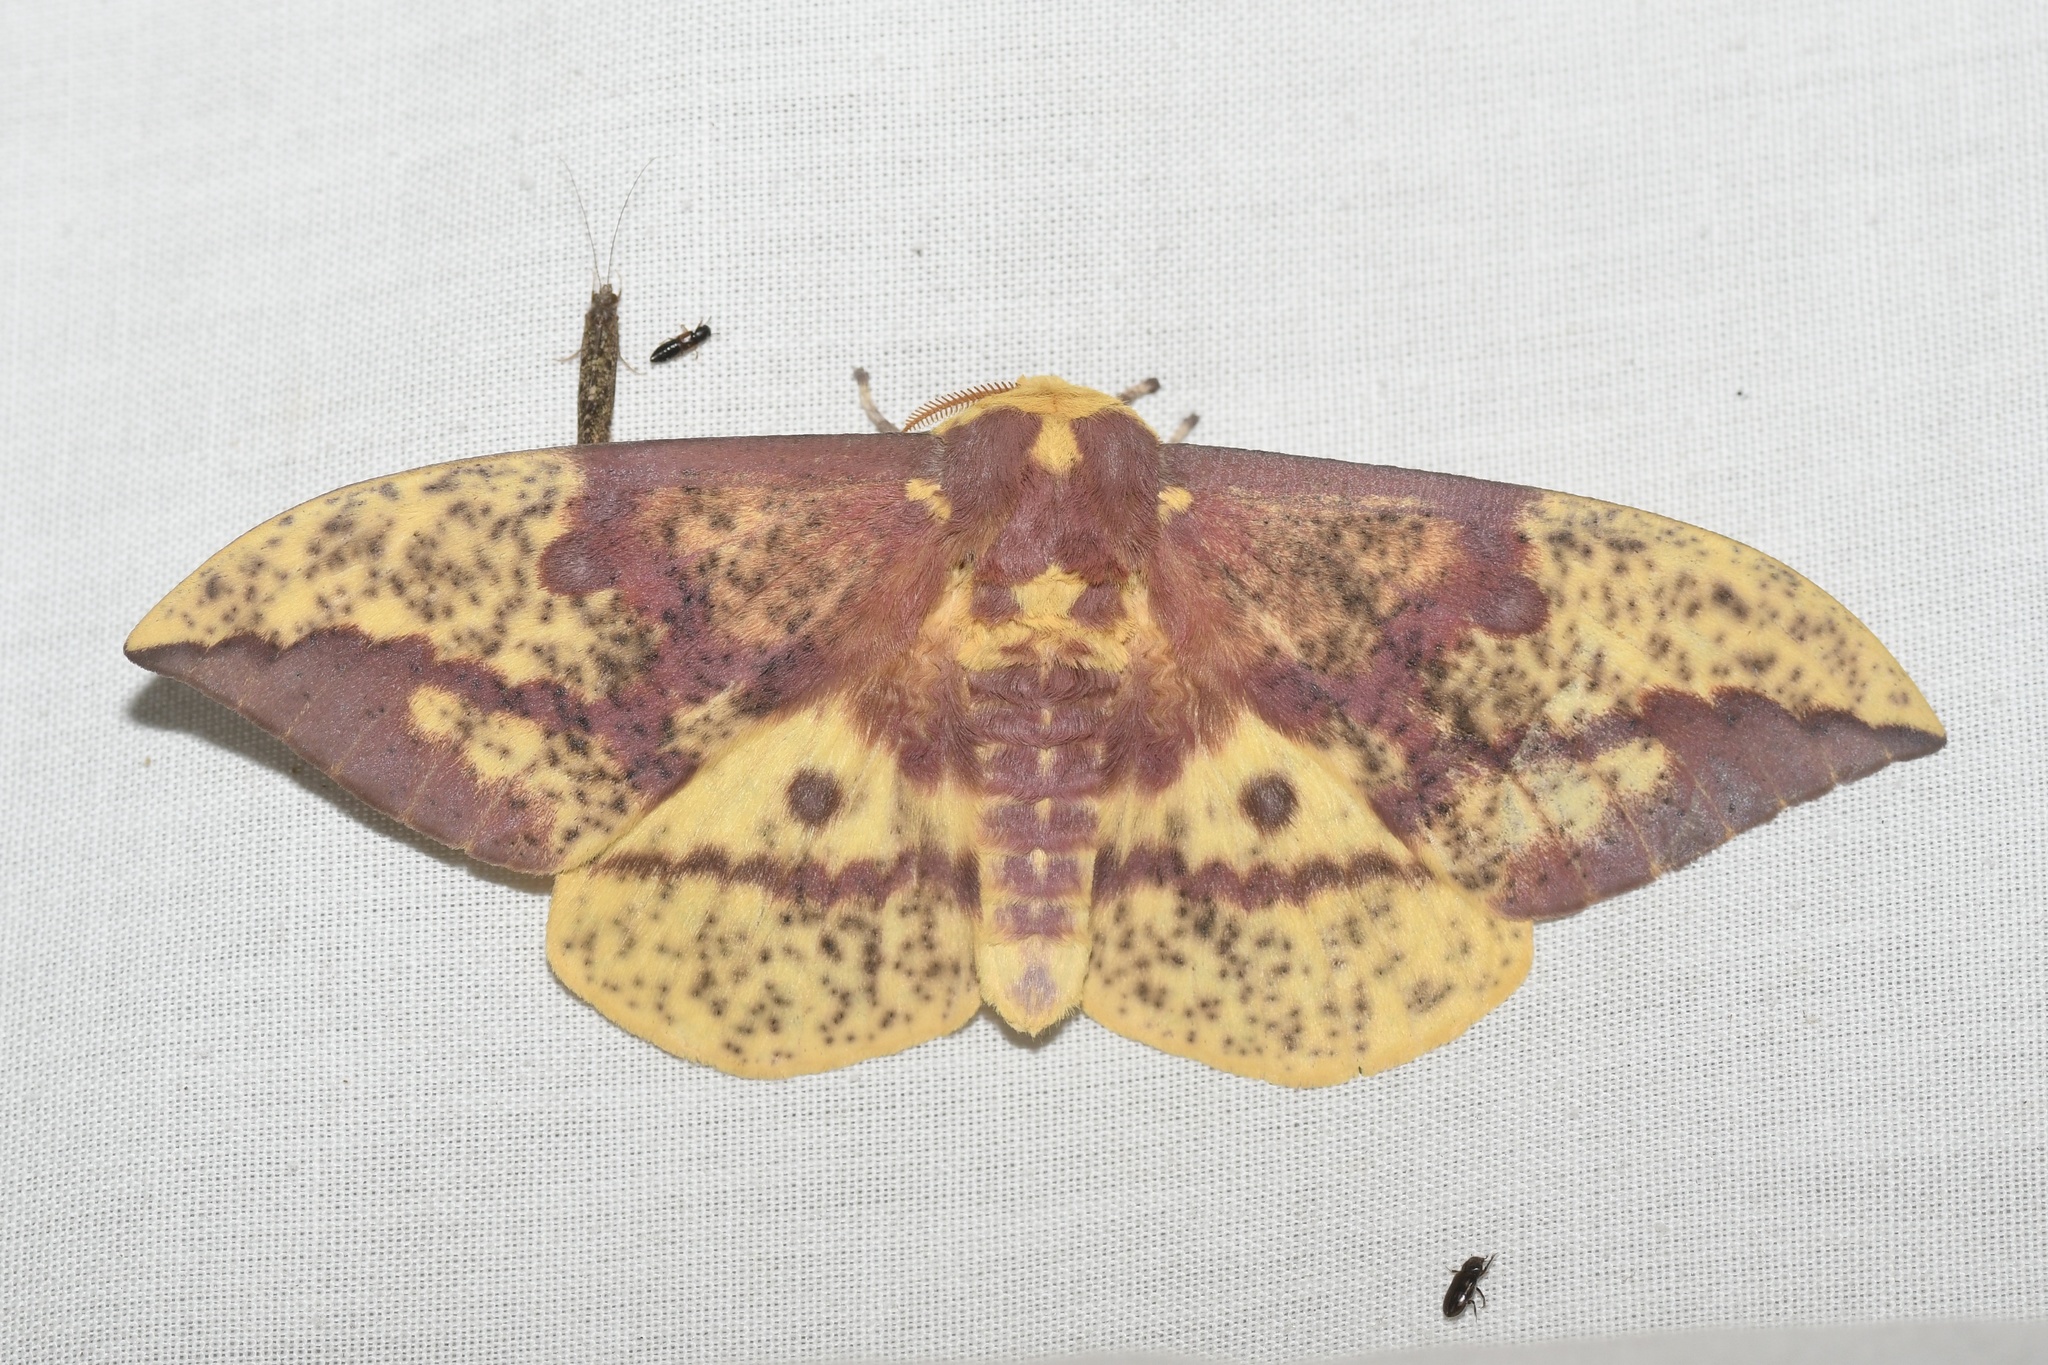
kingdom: Animalia
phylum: Arthropoda
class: Insecta
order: Lepidoptera
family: Saturniidae
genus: Eacles
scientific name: Eacles
